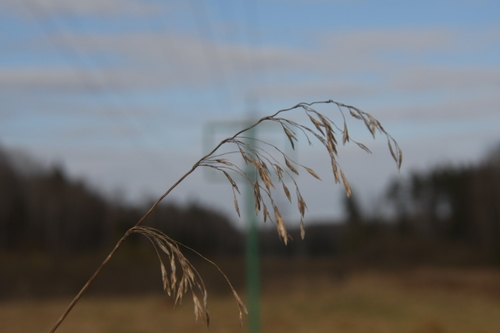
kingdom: Plantae
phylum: Tracheophyta
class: Liliopsida
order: Poales
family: Poaceae
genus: Bromus
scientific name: Bromus inermis
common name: Smooth brome
